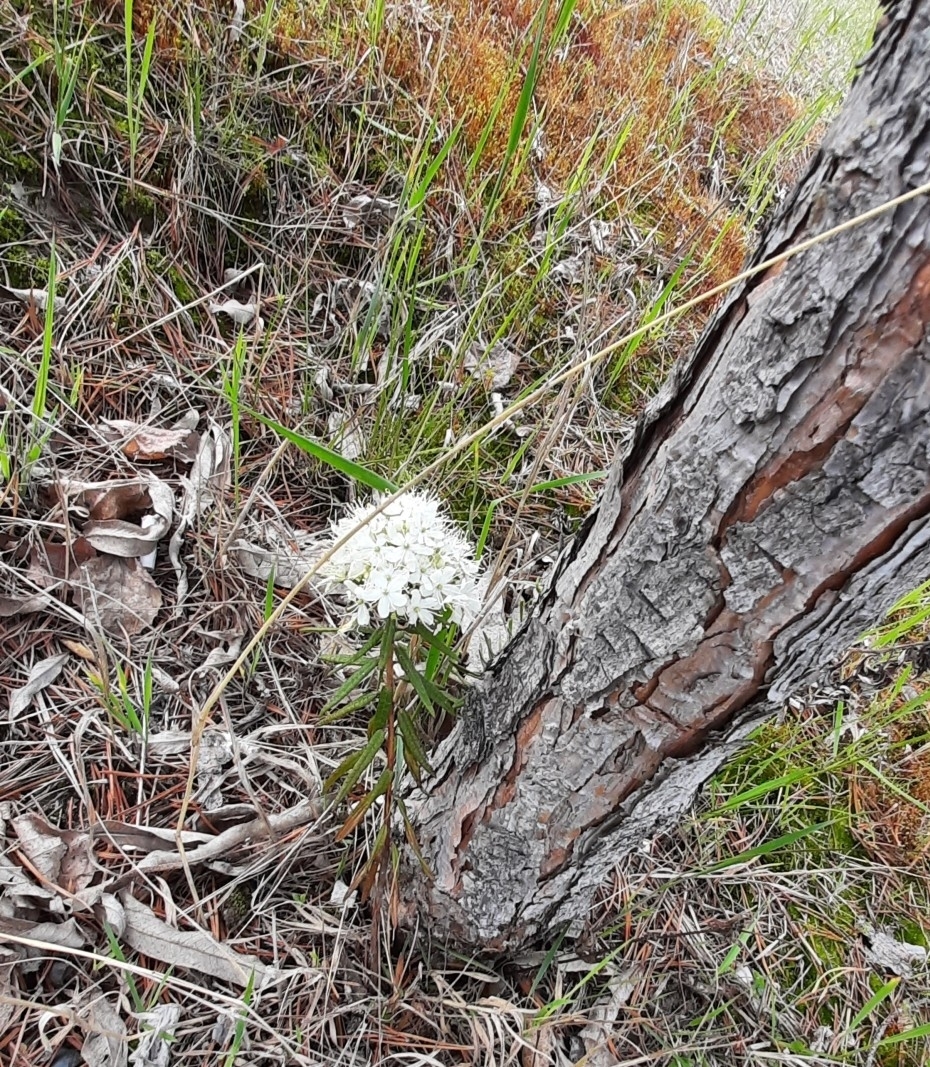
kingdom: Plantae
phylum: Tracheophyta
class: Magnoliopsida
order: Ericales
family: Ericaceae
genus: Rhododendron
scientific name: Rhododendron tomentosum
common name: Marsh labrador tea
